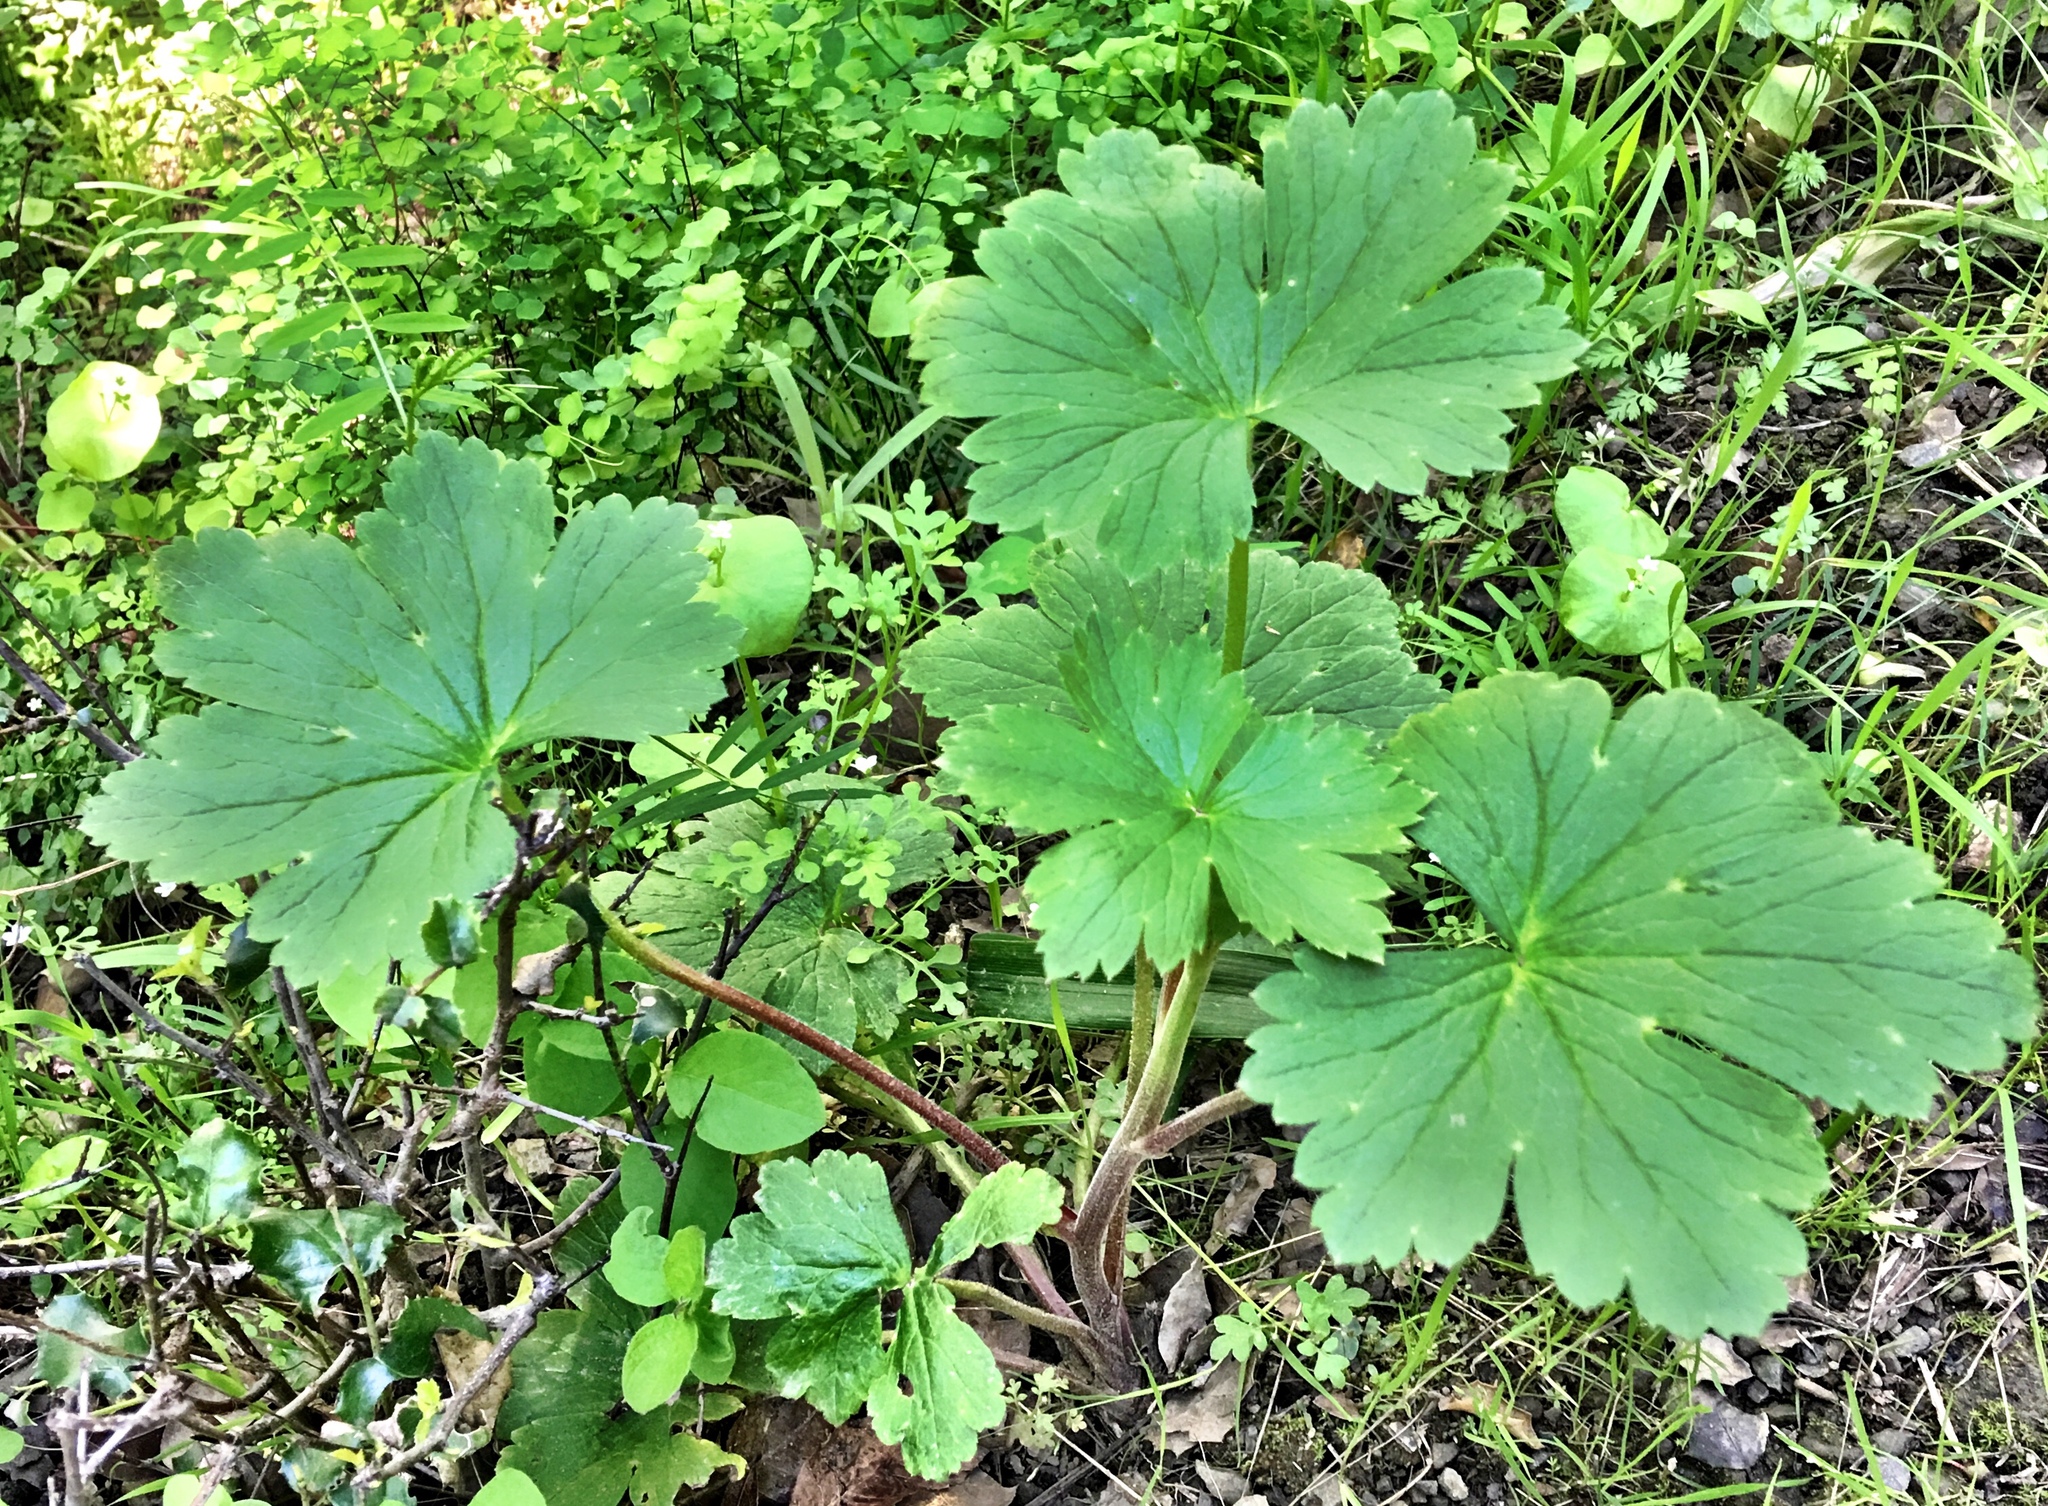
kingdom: Plantae
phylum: Tracheophyta
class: Magnoliopsida
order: Ranunculales
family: Ranunculaceae
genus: Delphinium
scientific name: Delphinium californicum
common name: California larkspur
